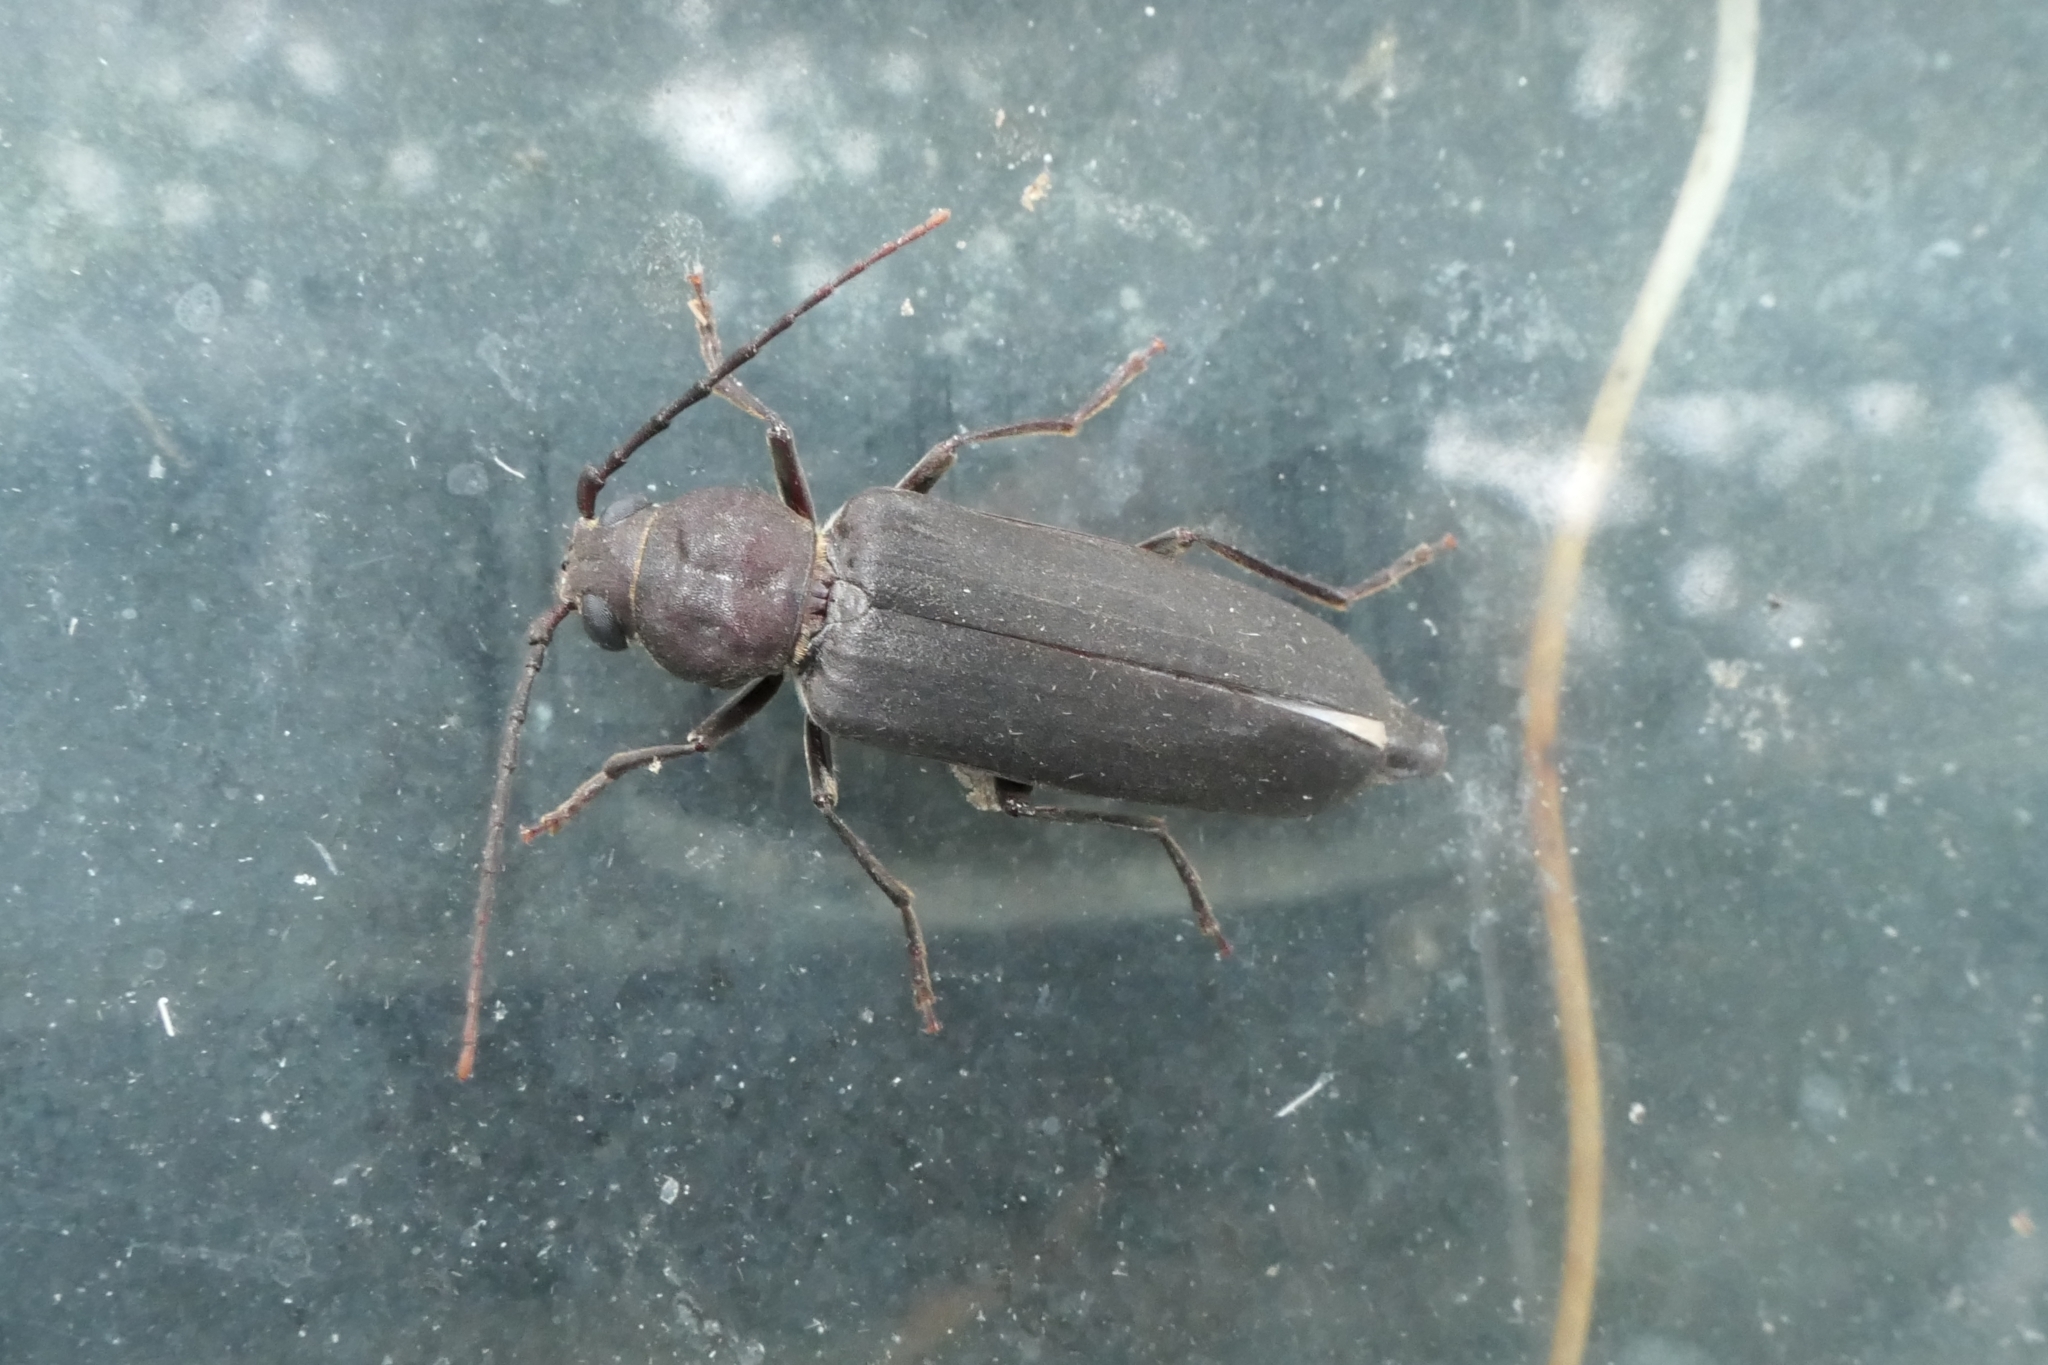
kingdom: Animalia
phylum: Arthropoda
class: Insecta
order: Coleoptera
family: Cerambycidae
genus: Arhopalus
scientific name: Arhopalus ferus
